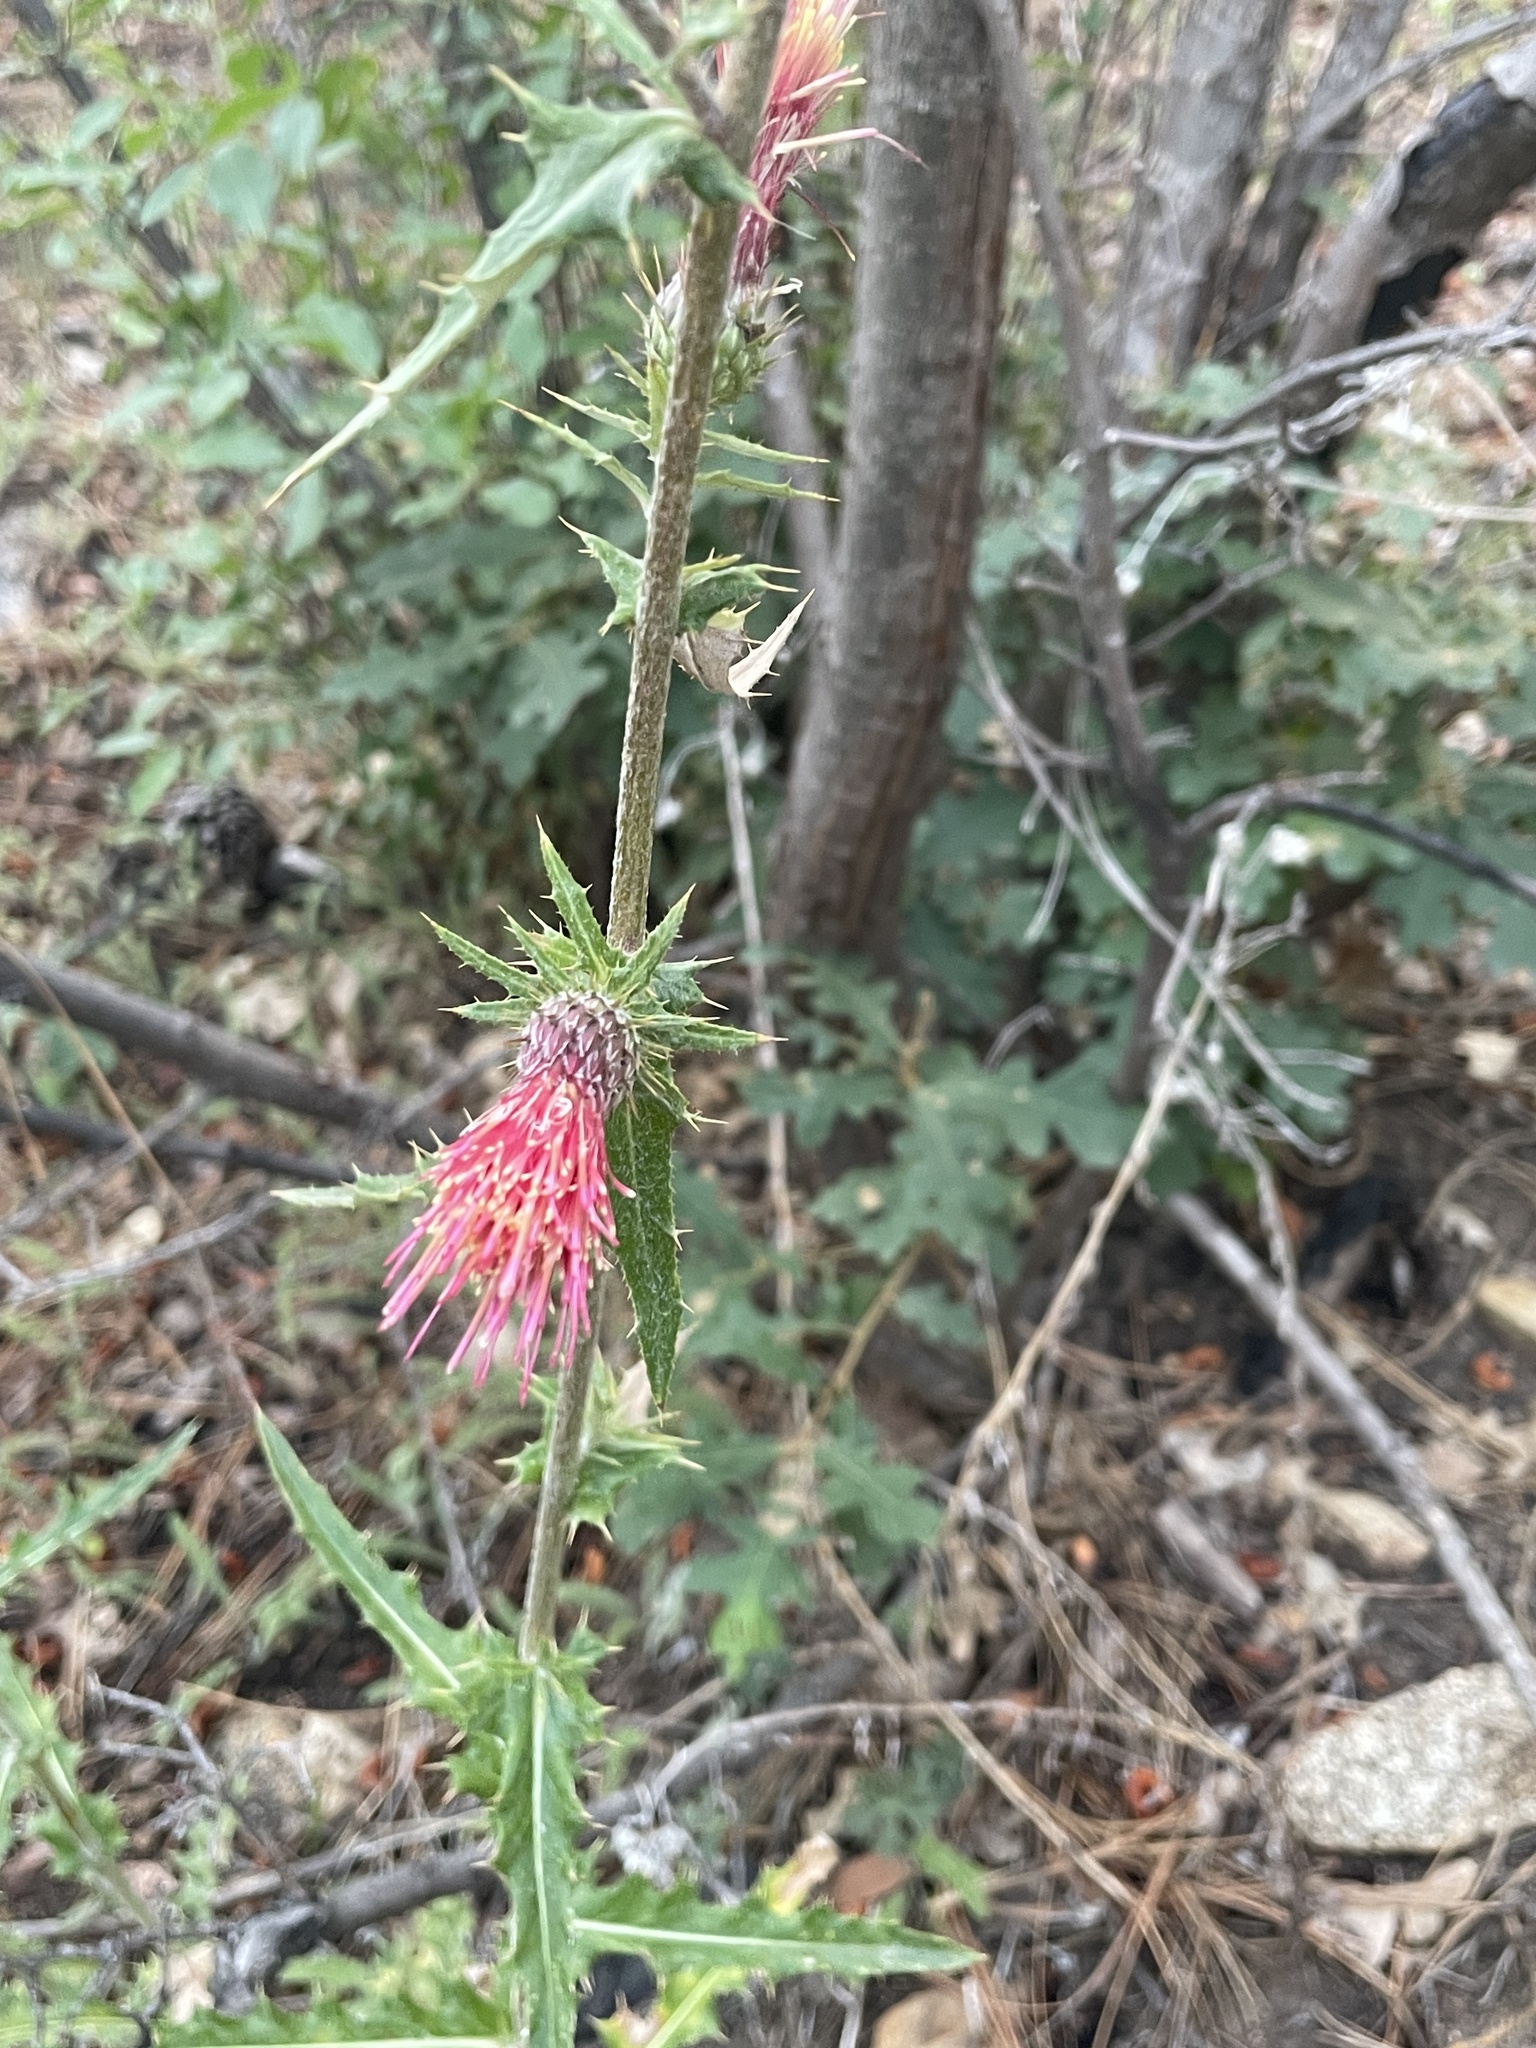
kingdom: Plantae
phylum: Tracheophyta
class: Magnoliopsida
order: Asterales
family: Asteraceae
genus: Cirsium
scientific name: Cirsium arizonicum
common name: Arizona thistle
